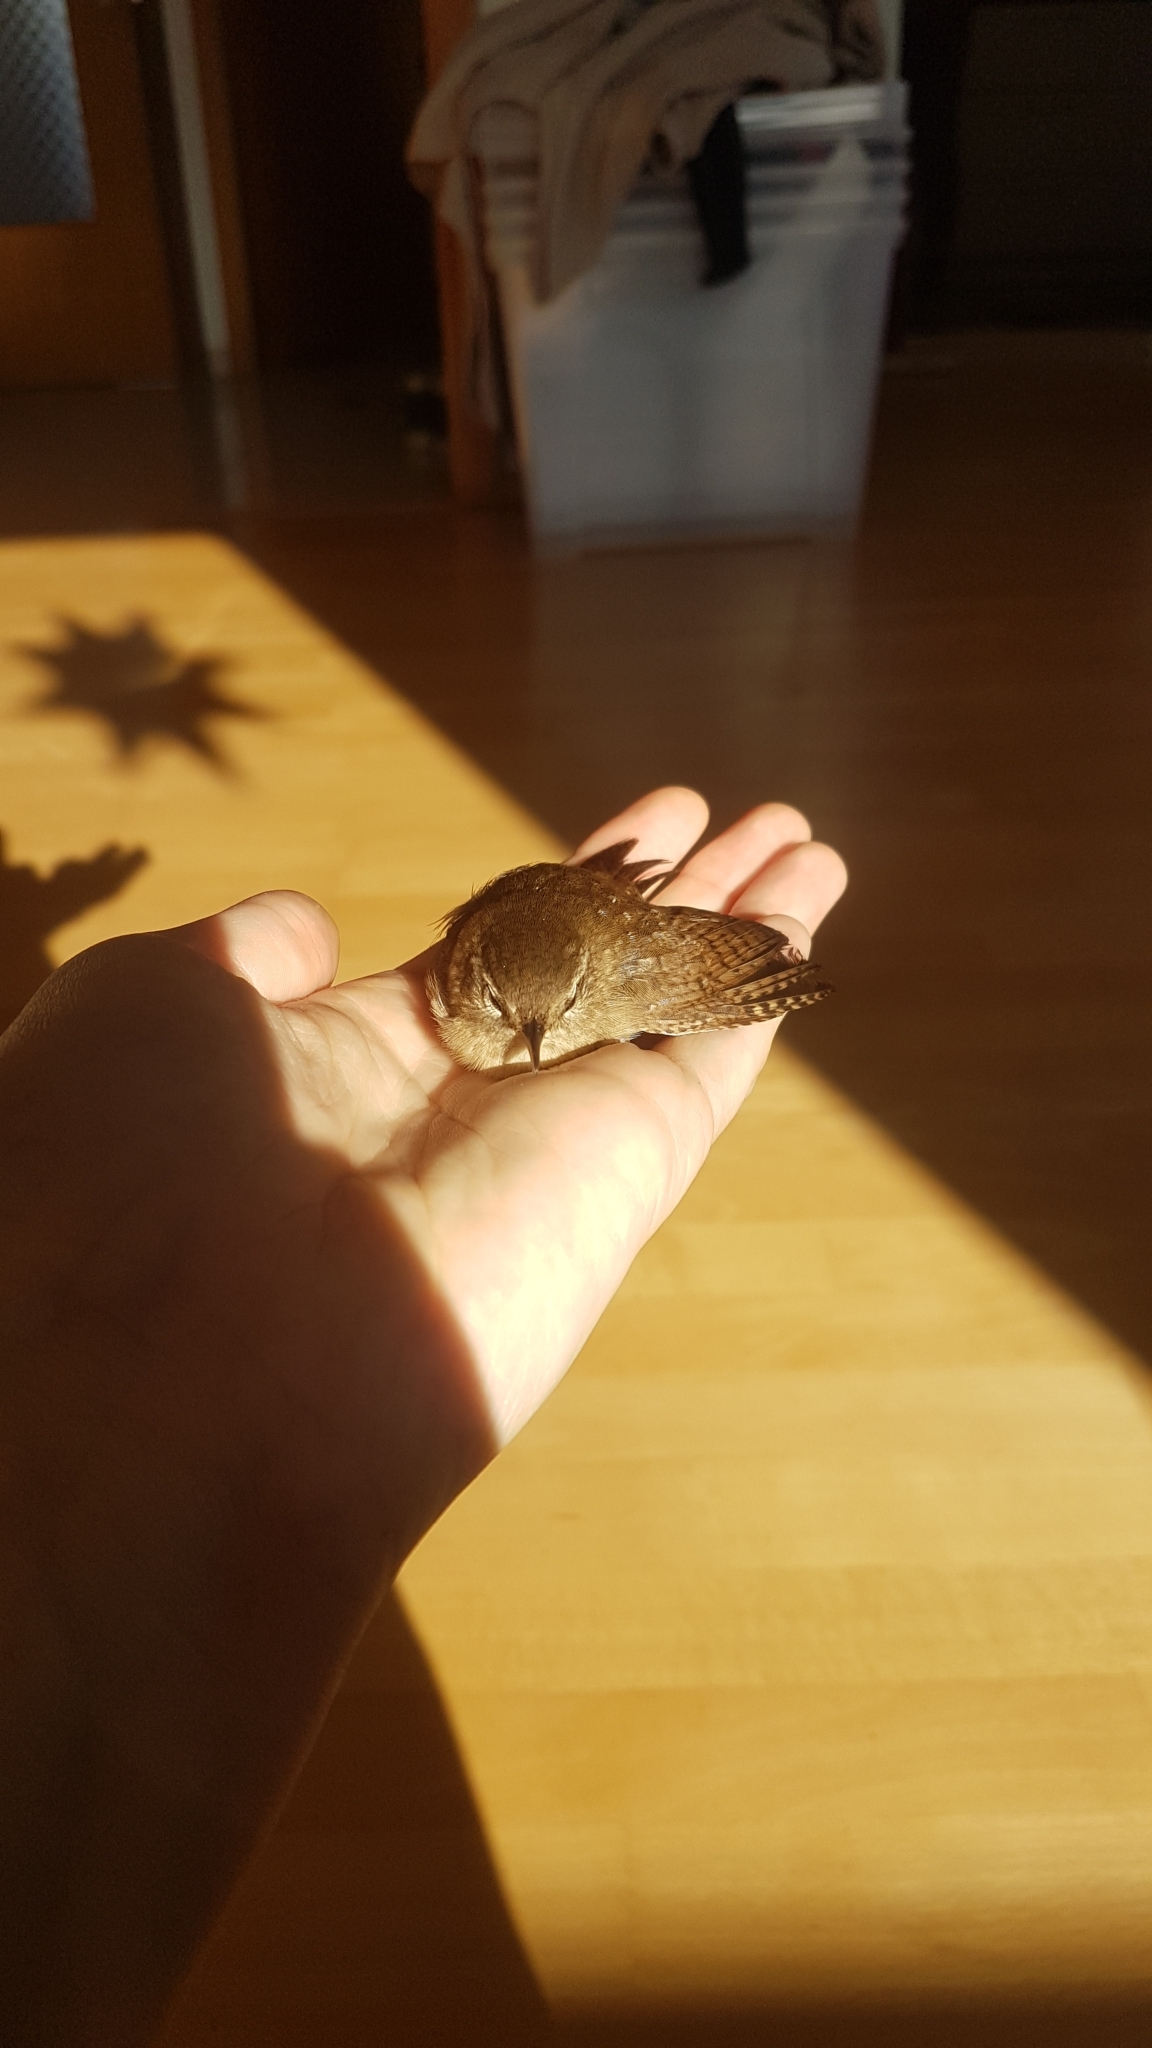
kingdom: Animalia
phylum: Chordata
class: Aves
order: Passeriformes
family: Troglodytidae
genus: Troglodytes
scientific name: Troglodytes troglodytes
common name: Eurasian wren
